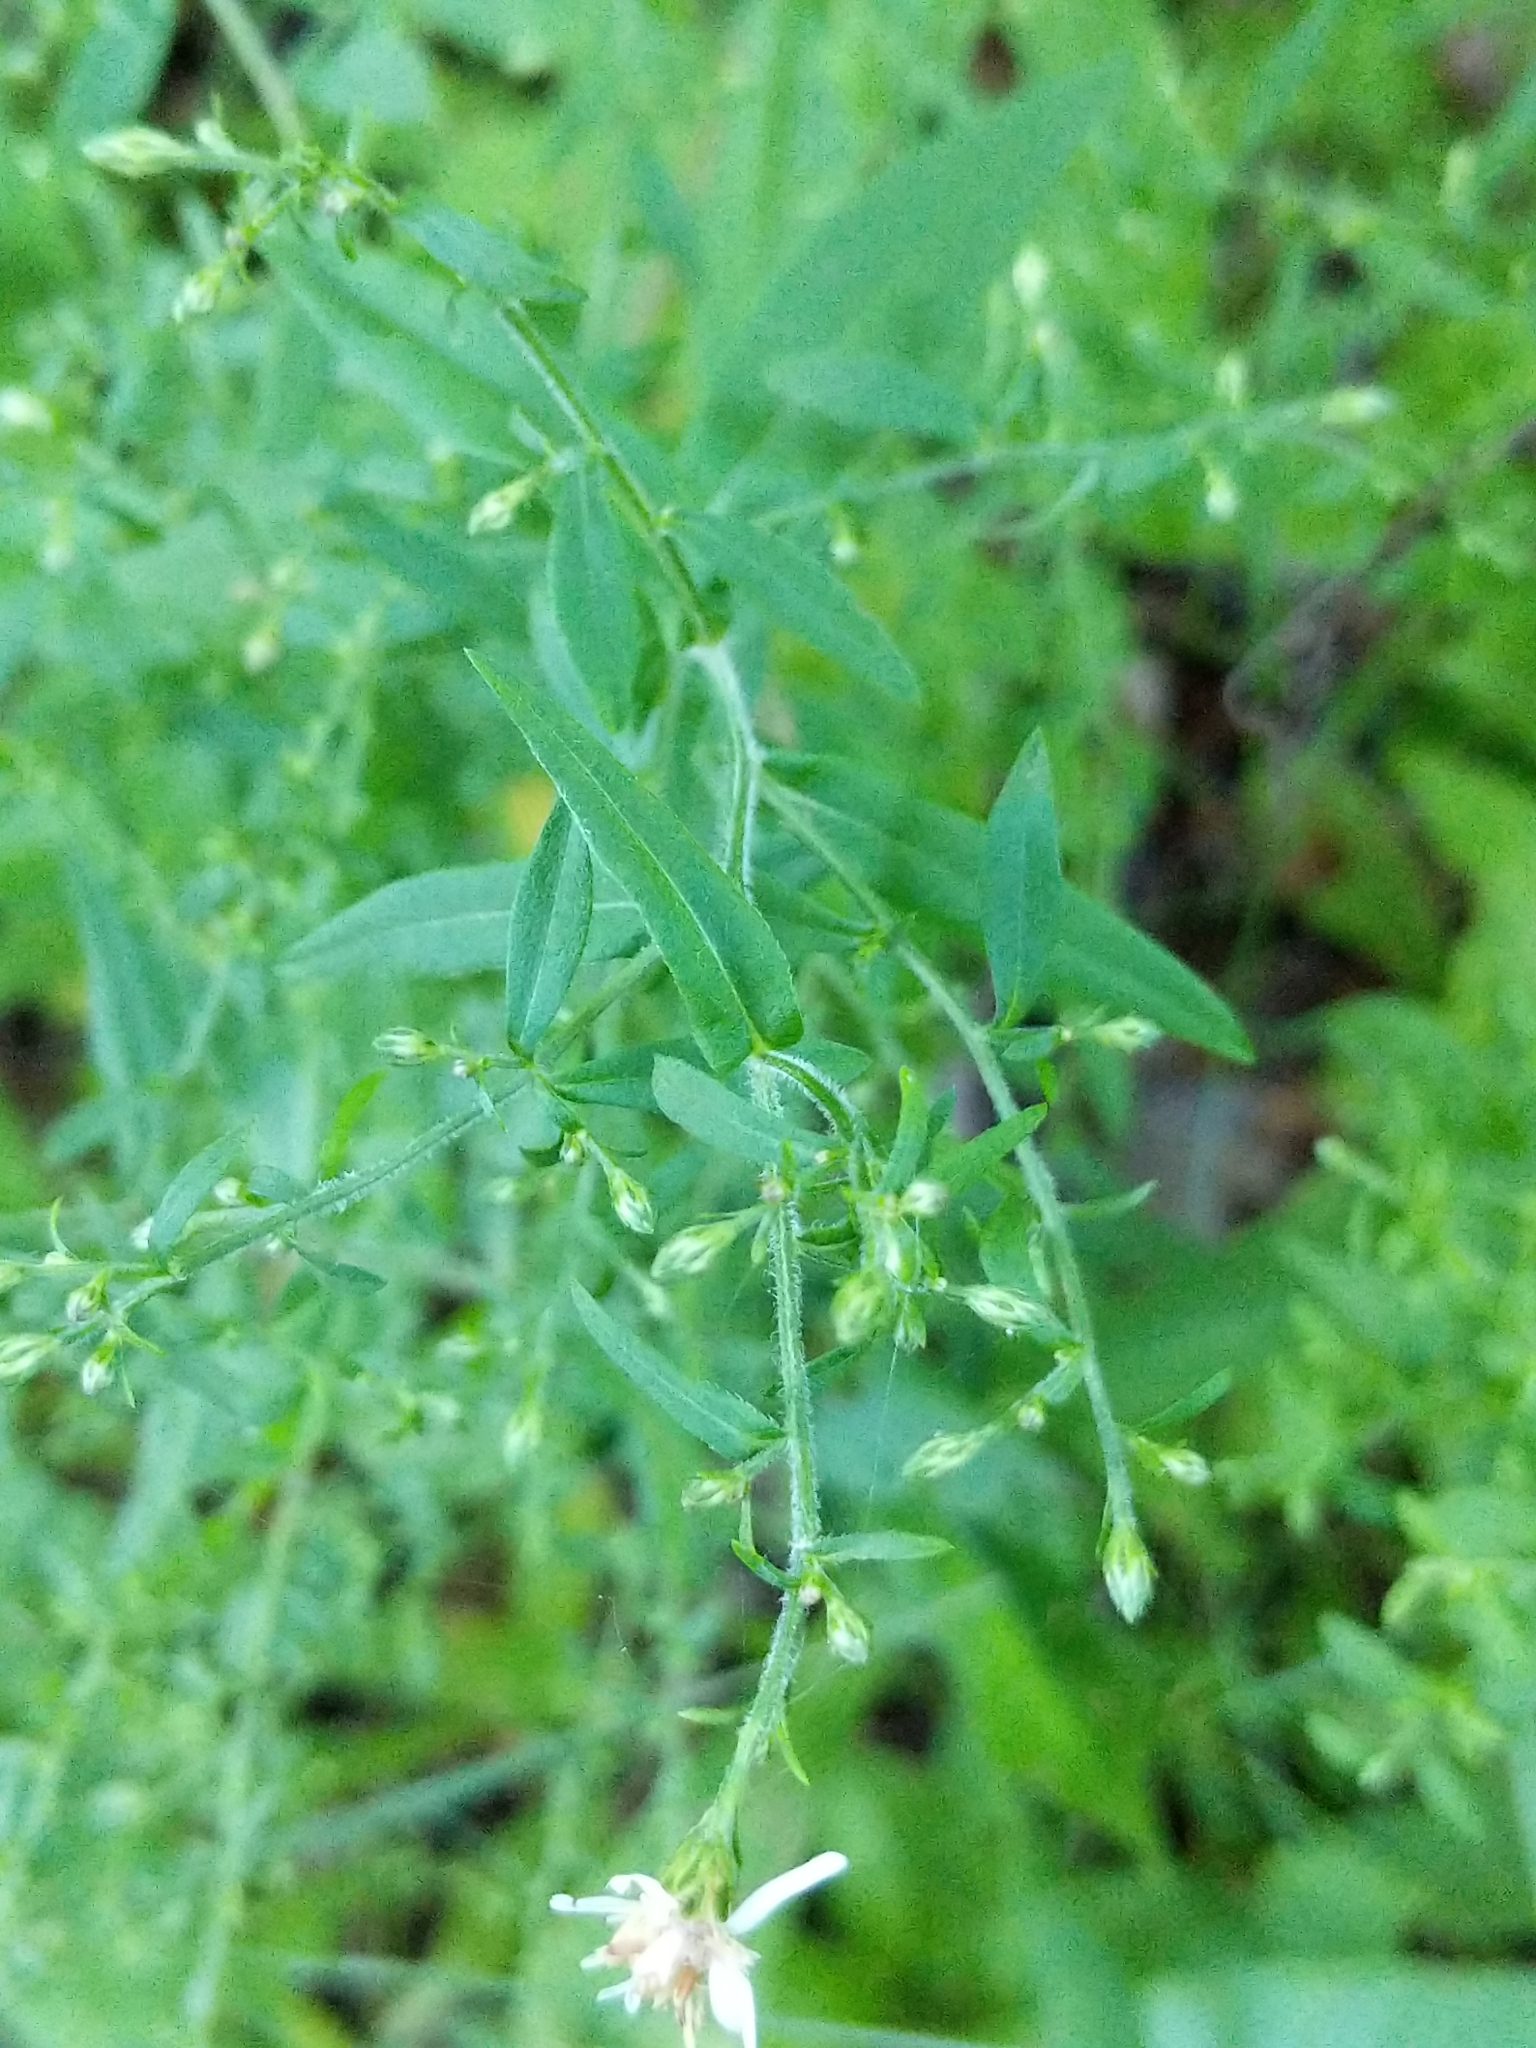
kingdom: Plantae
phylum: Tracheophyta
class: Magnoliopsida
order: Asterales
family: Asteraceae
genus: Symphyotrichum
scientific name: Symphyotrichum lateriflorum
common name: Calico aster
